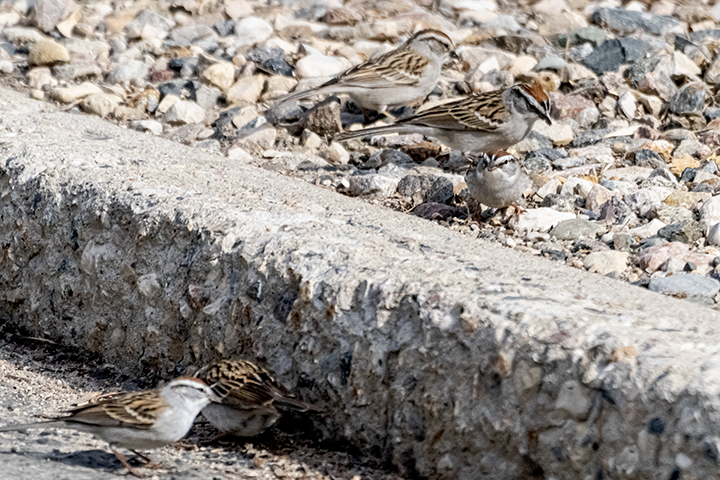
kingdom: Animalia
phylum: Chordata
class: Aves
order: Passeriformes
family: Passerellidae
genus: Spizella
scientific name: Spizella passerina
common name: Chipping sparrow
